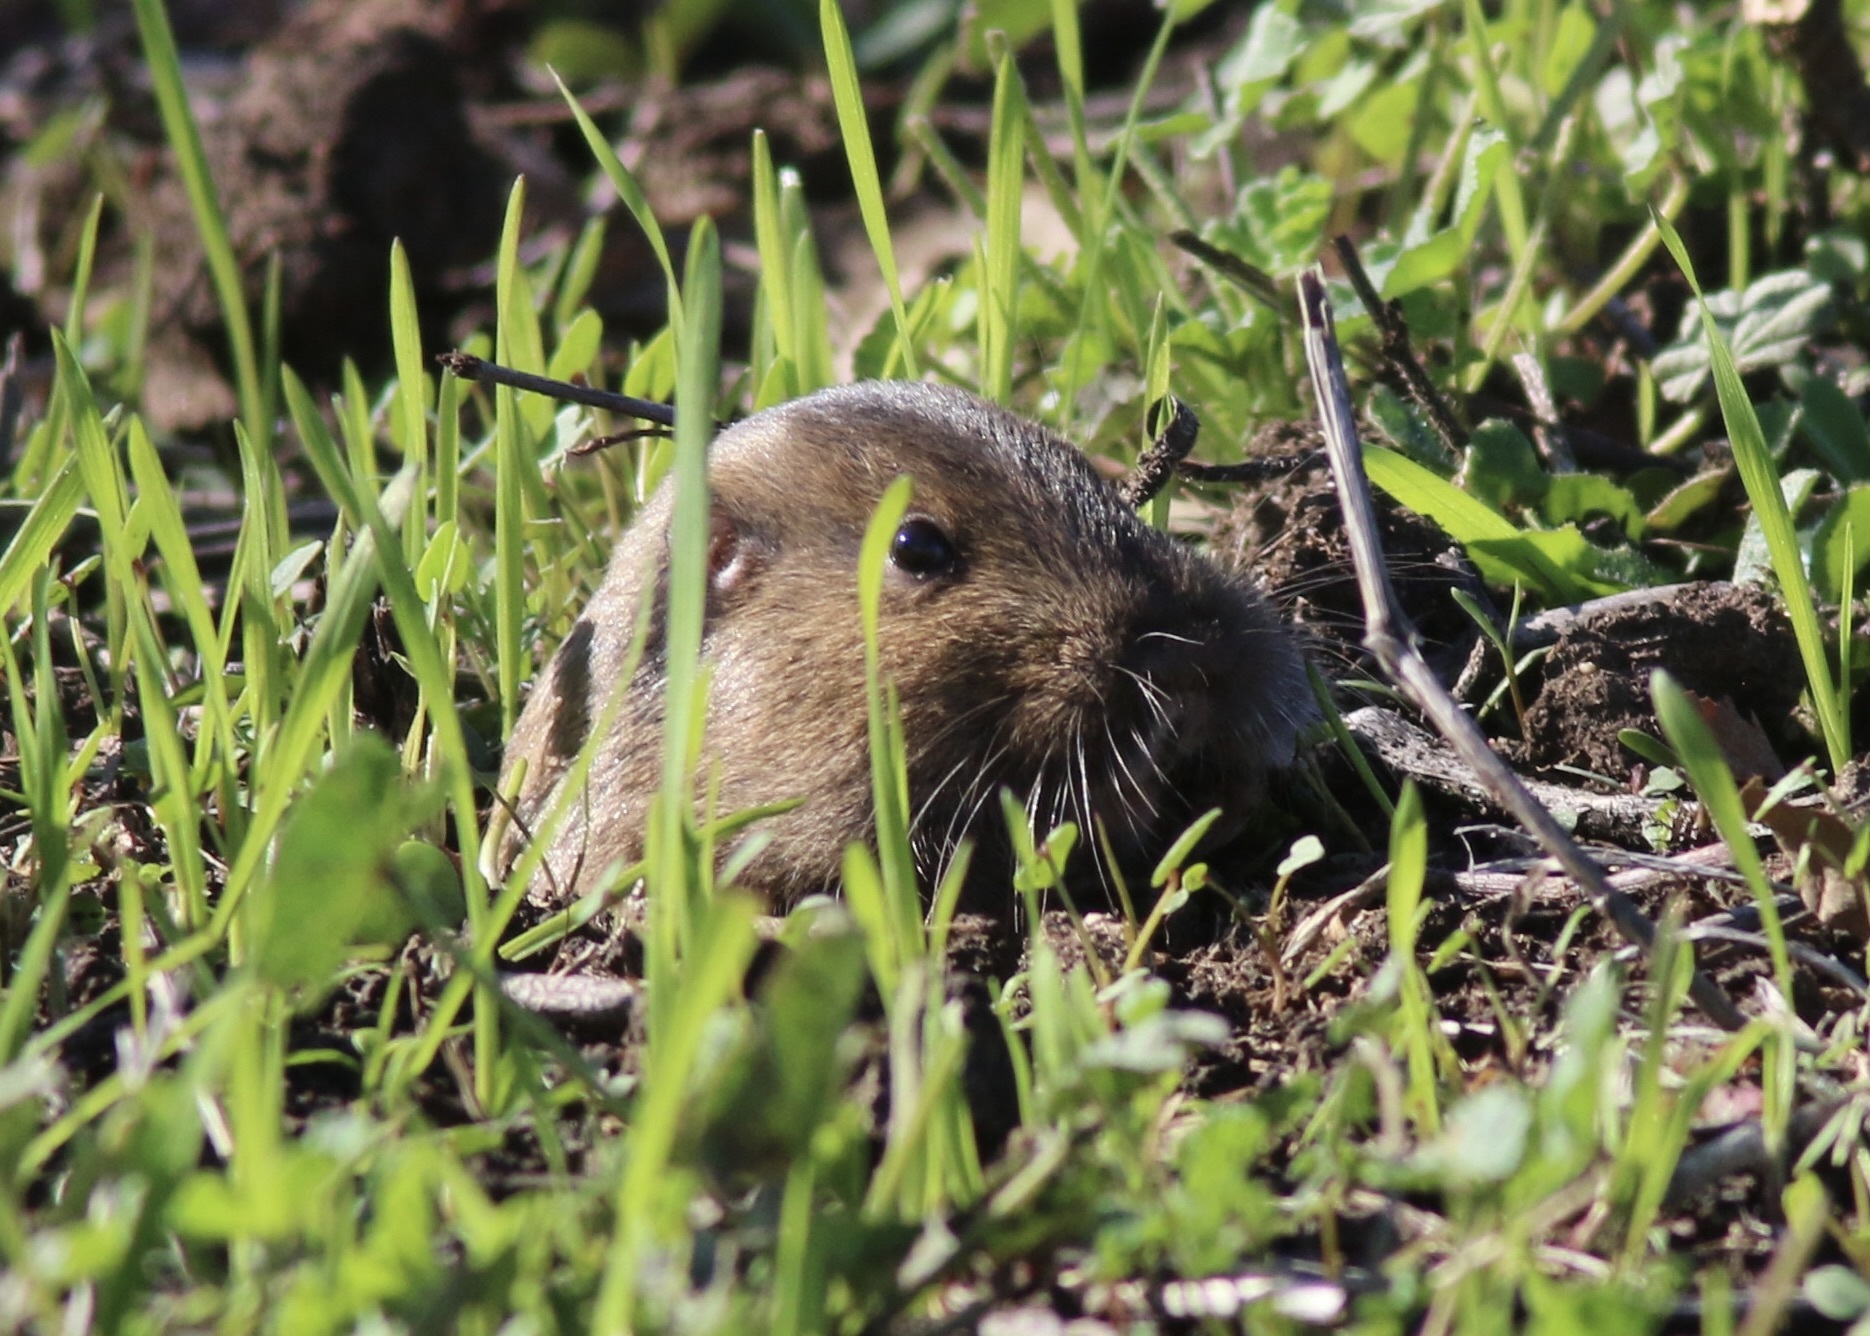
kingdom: Animalia
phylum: Chordata
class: Mammalia
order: Rodentia
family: Geomyidae
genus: Thomomys
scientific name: Thomomys bottae
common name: Botta's pocket gopher
